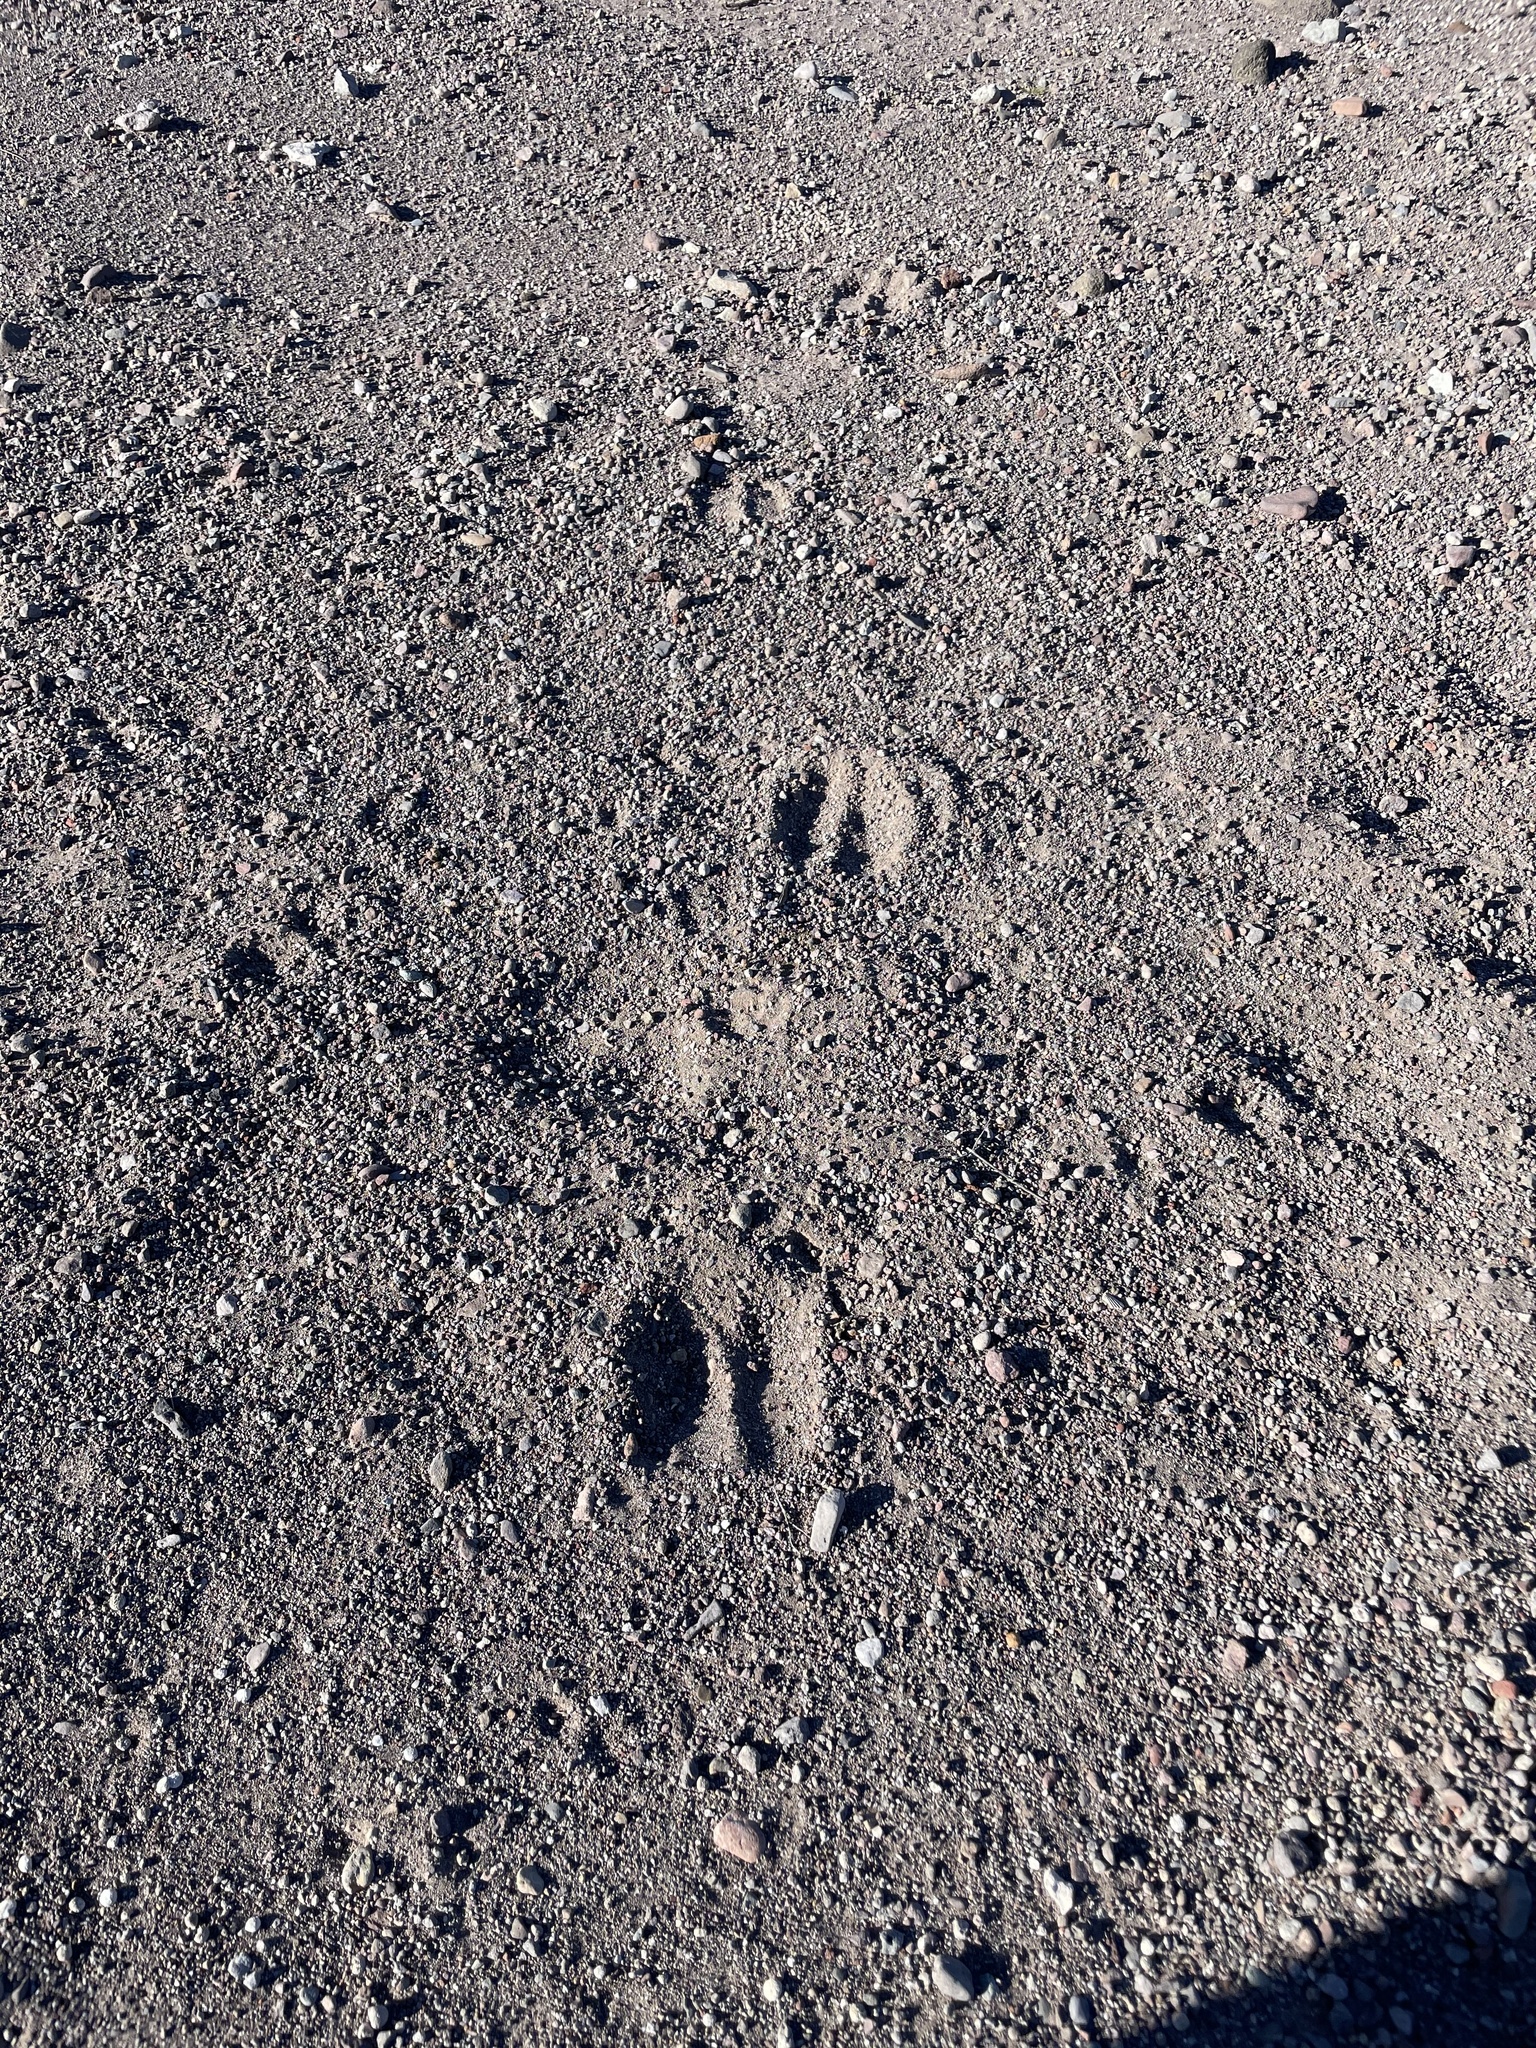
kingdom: Animalia
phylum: Chordata
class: Mammalia
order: Artiodactyla
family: Cervidae
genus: Odocoileus
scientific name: Odocoileus hemionus
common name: Mule deer
